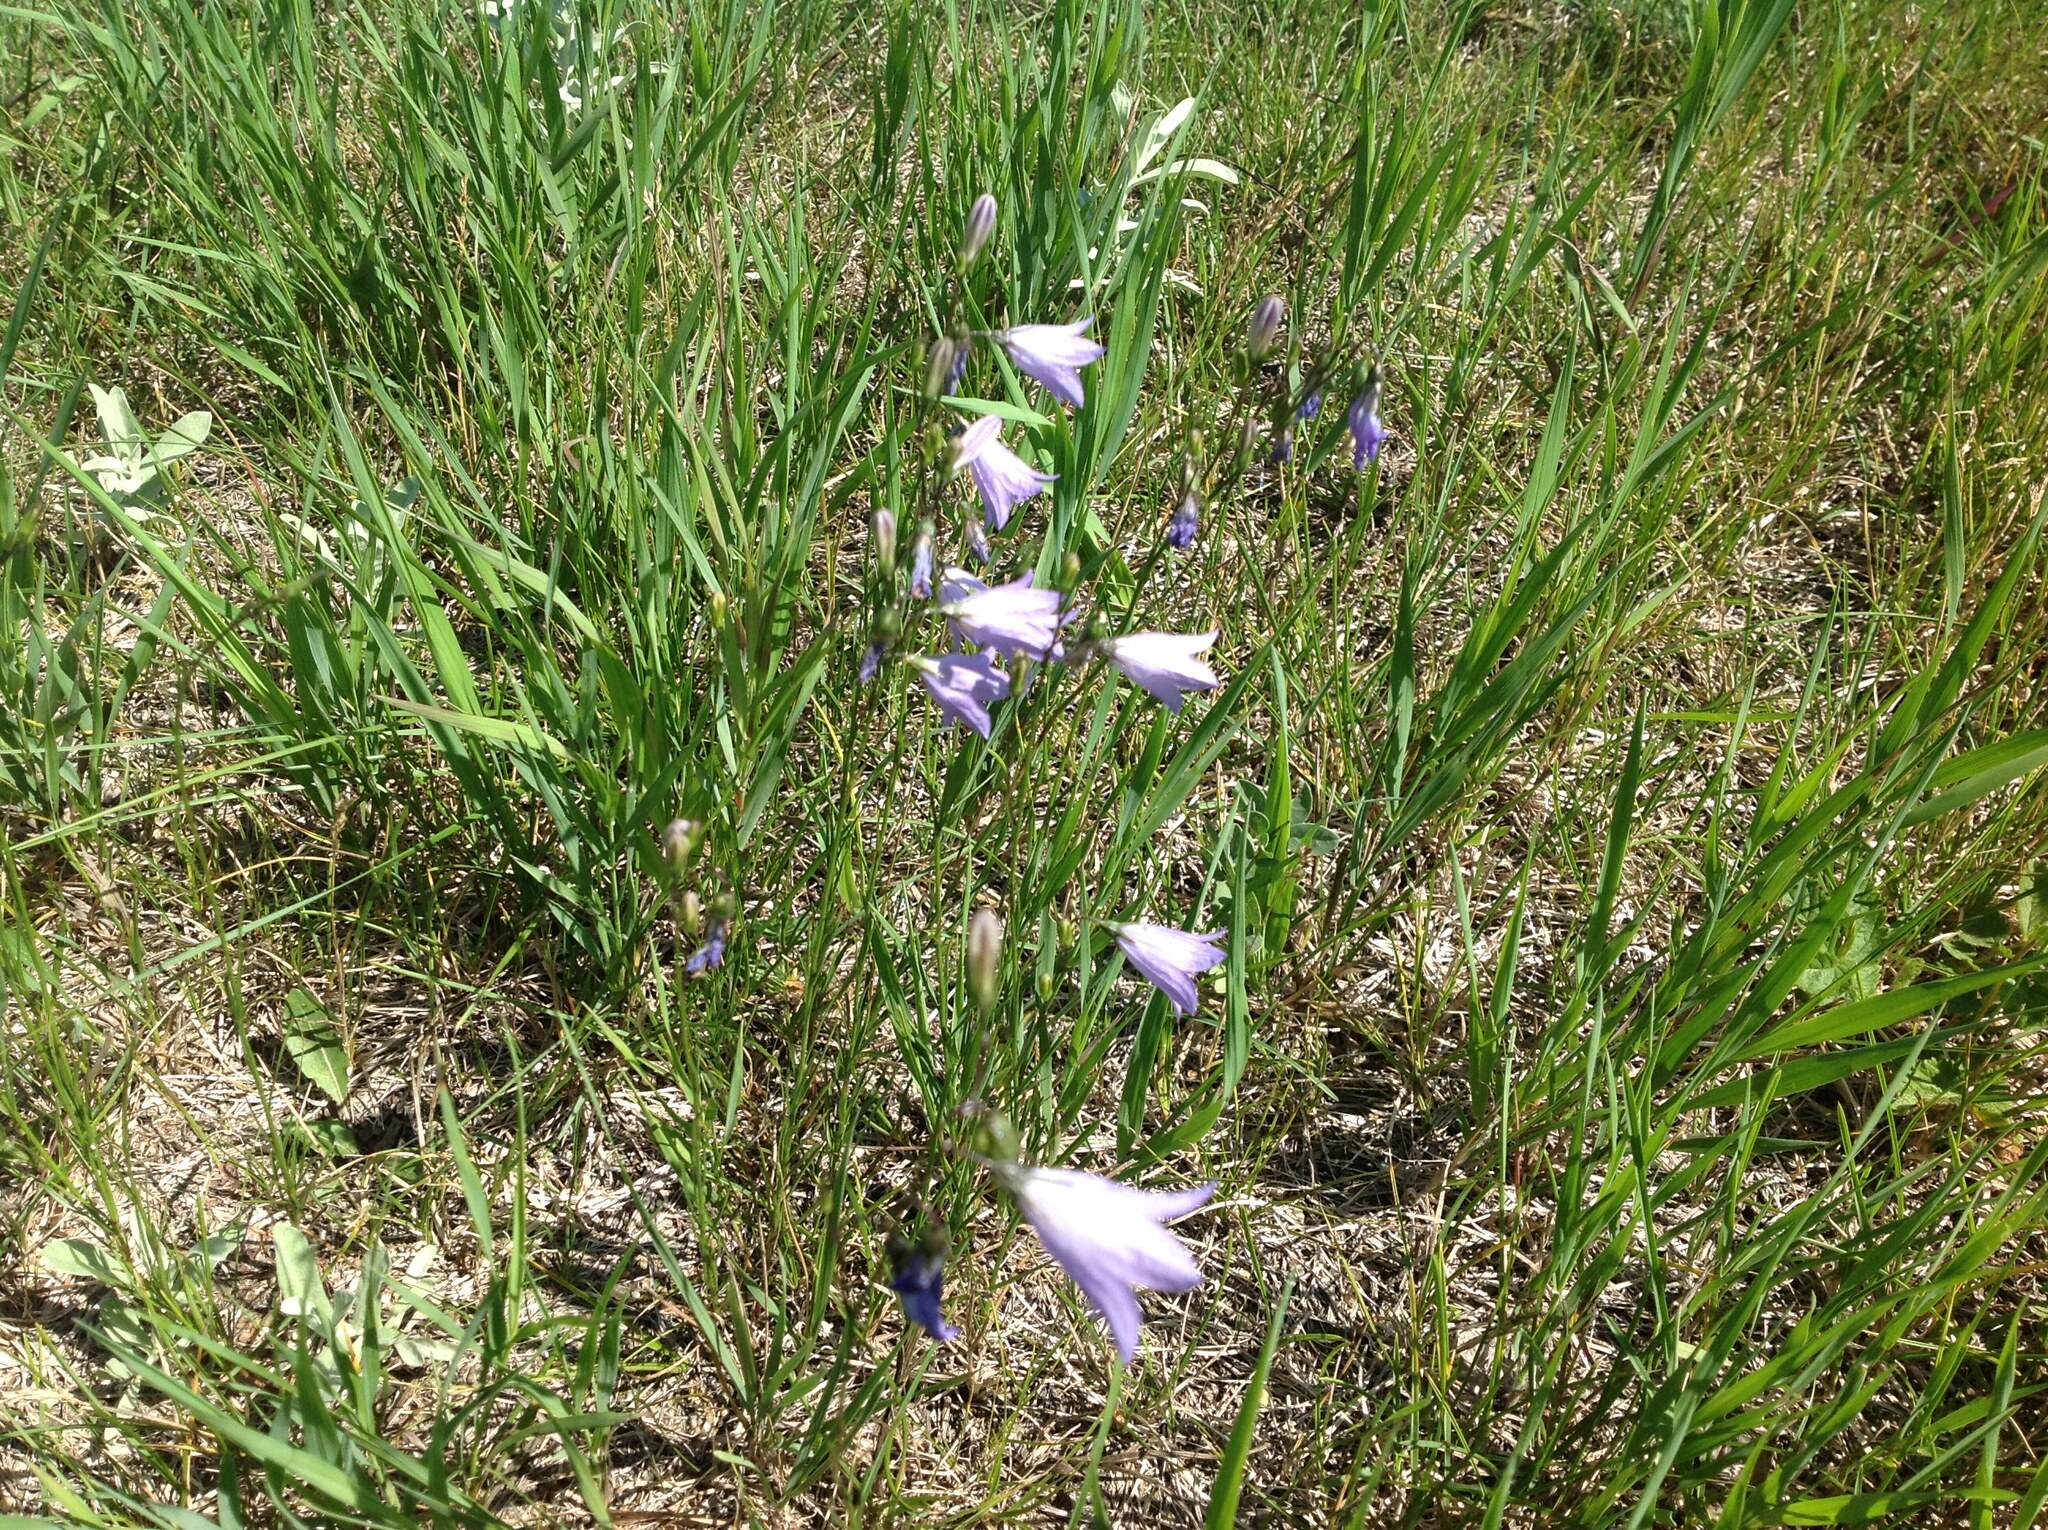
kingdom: Plantae
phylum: Tracheophyta
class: Magnoliopsida
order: Asterales
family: Campanulaceae
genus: Campanula
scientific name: Campanula alaskana
